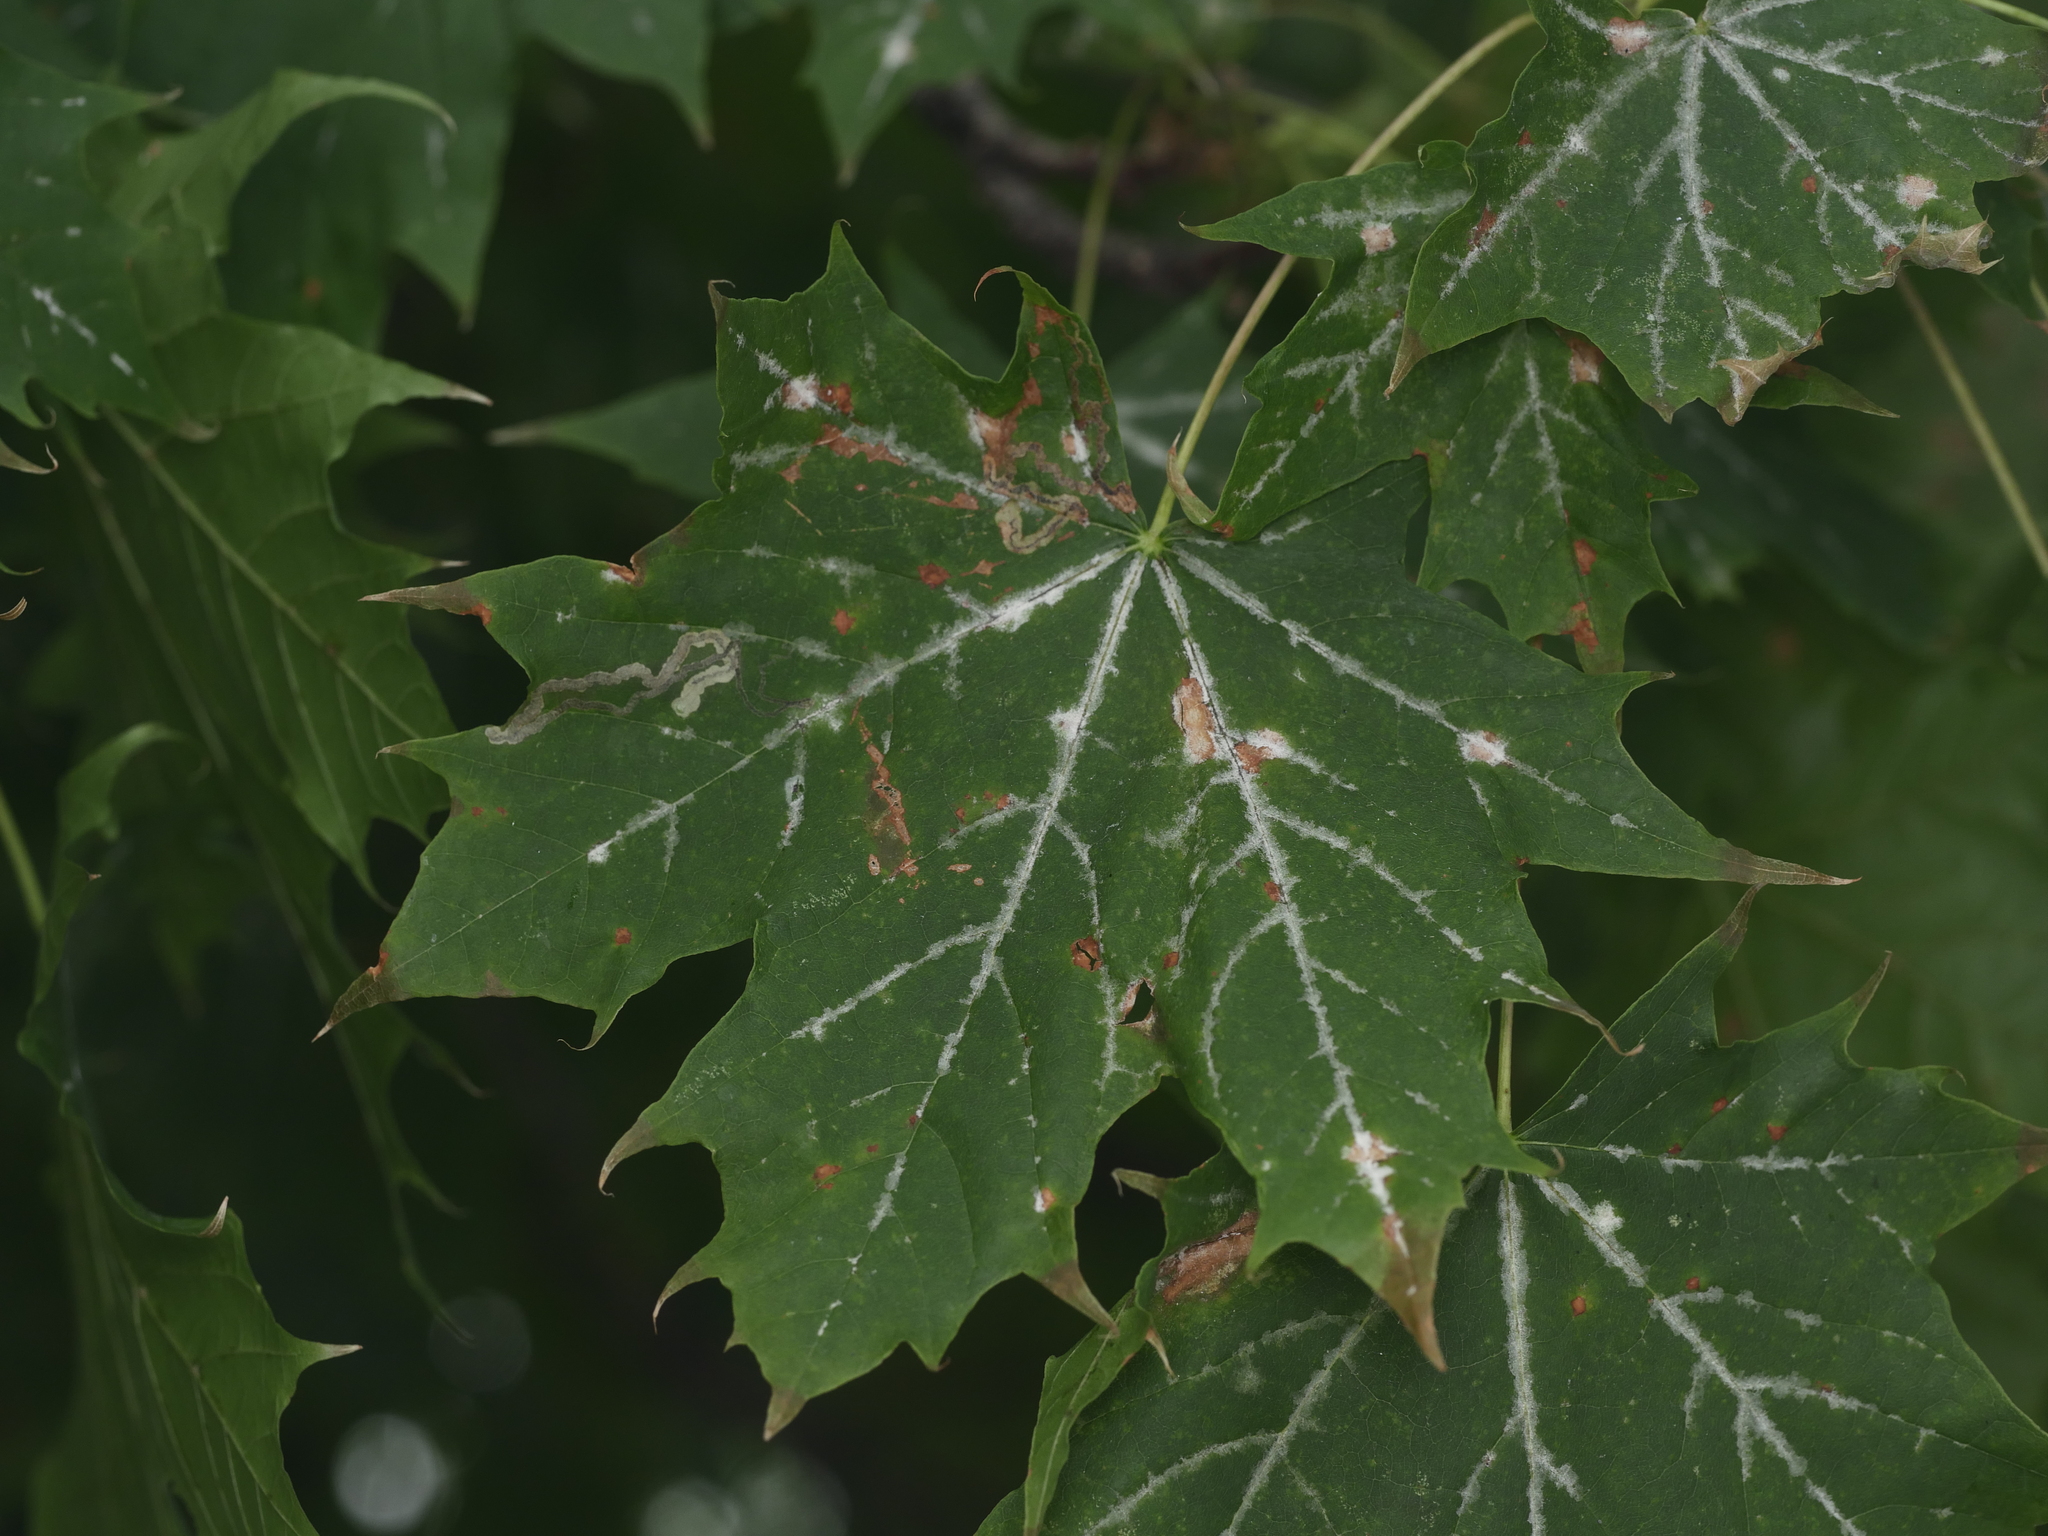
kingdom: Plantae
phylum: Tracheophyta
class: Magnoliopsida
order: Sapindales
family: Sapindaceae
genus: Acer
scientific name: Acer platanoides
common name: Norway maple
